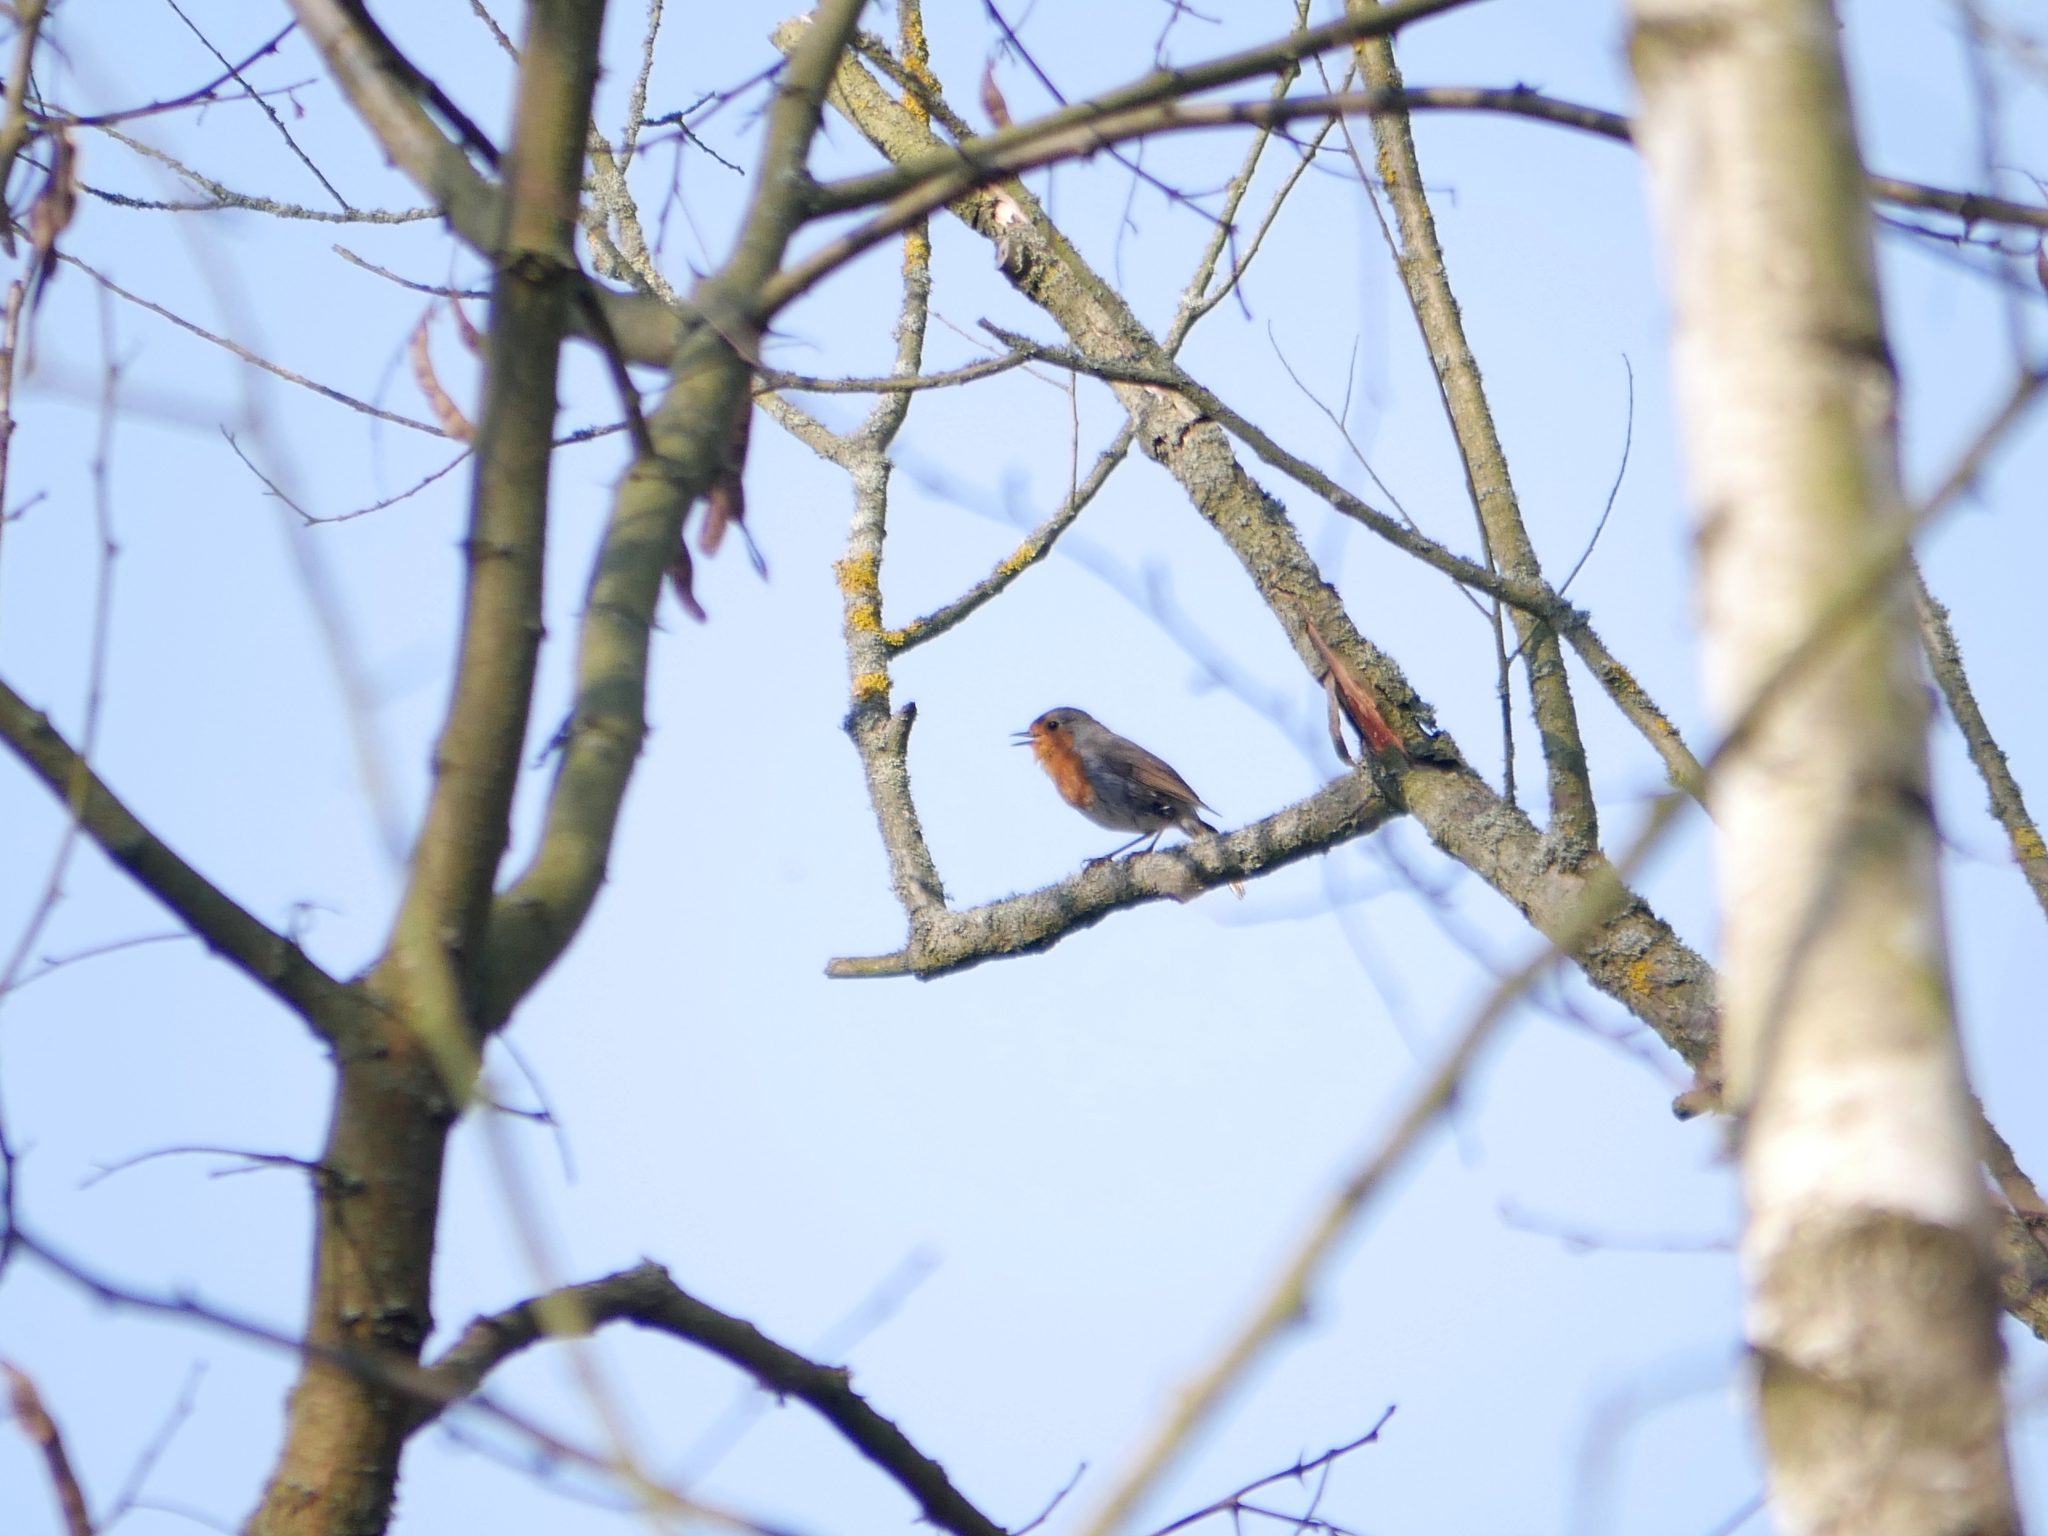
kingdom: Animalia
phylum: Chordata
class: Aves
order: Passeriformes
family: Muscicapidae
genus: Erithacus
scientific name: Erithacus rubecula
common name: European robin
